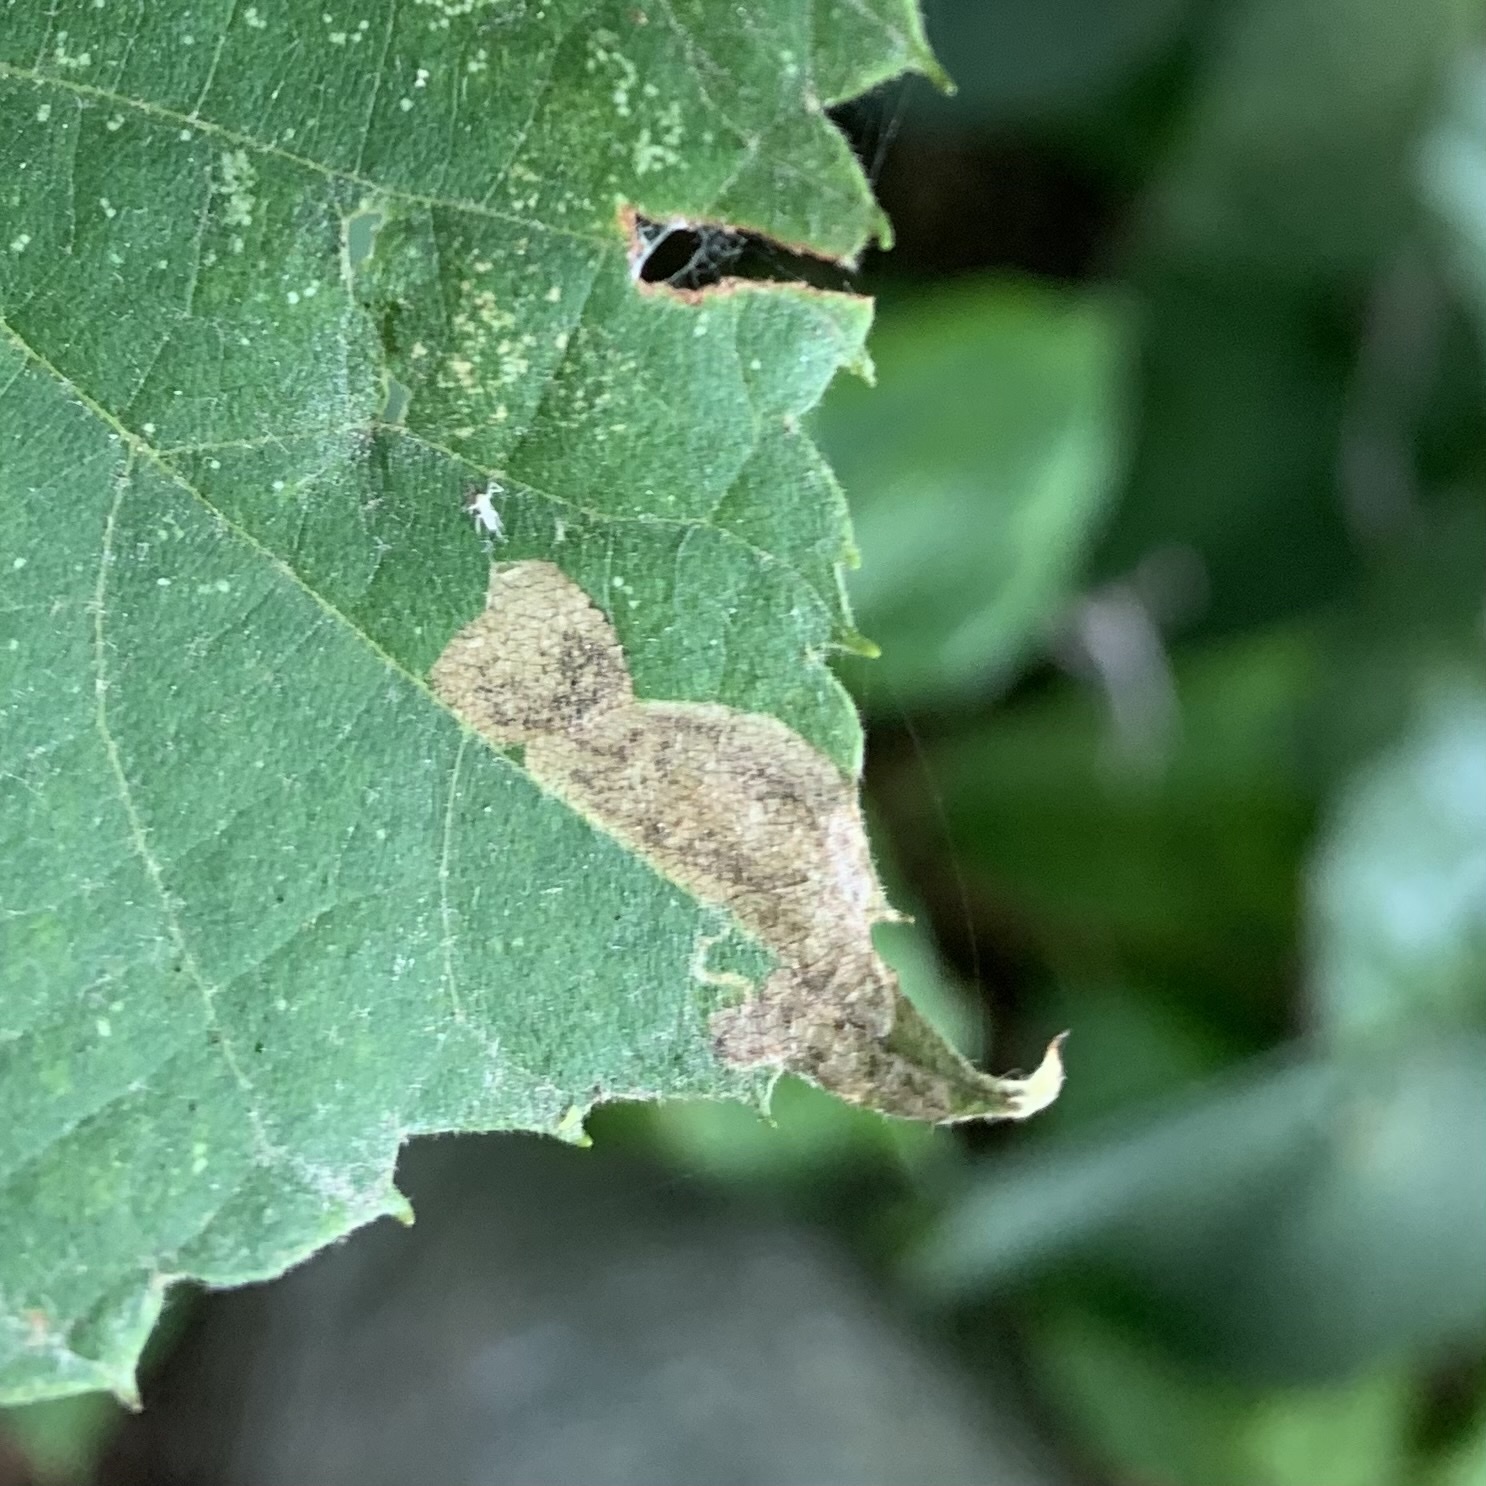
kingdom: Animalia
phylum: Arthropoda
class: Insecta
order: Lepidoptera
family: Nepticulidae
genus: Stigmella
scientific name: Stigmella argentifasciella
